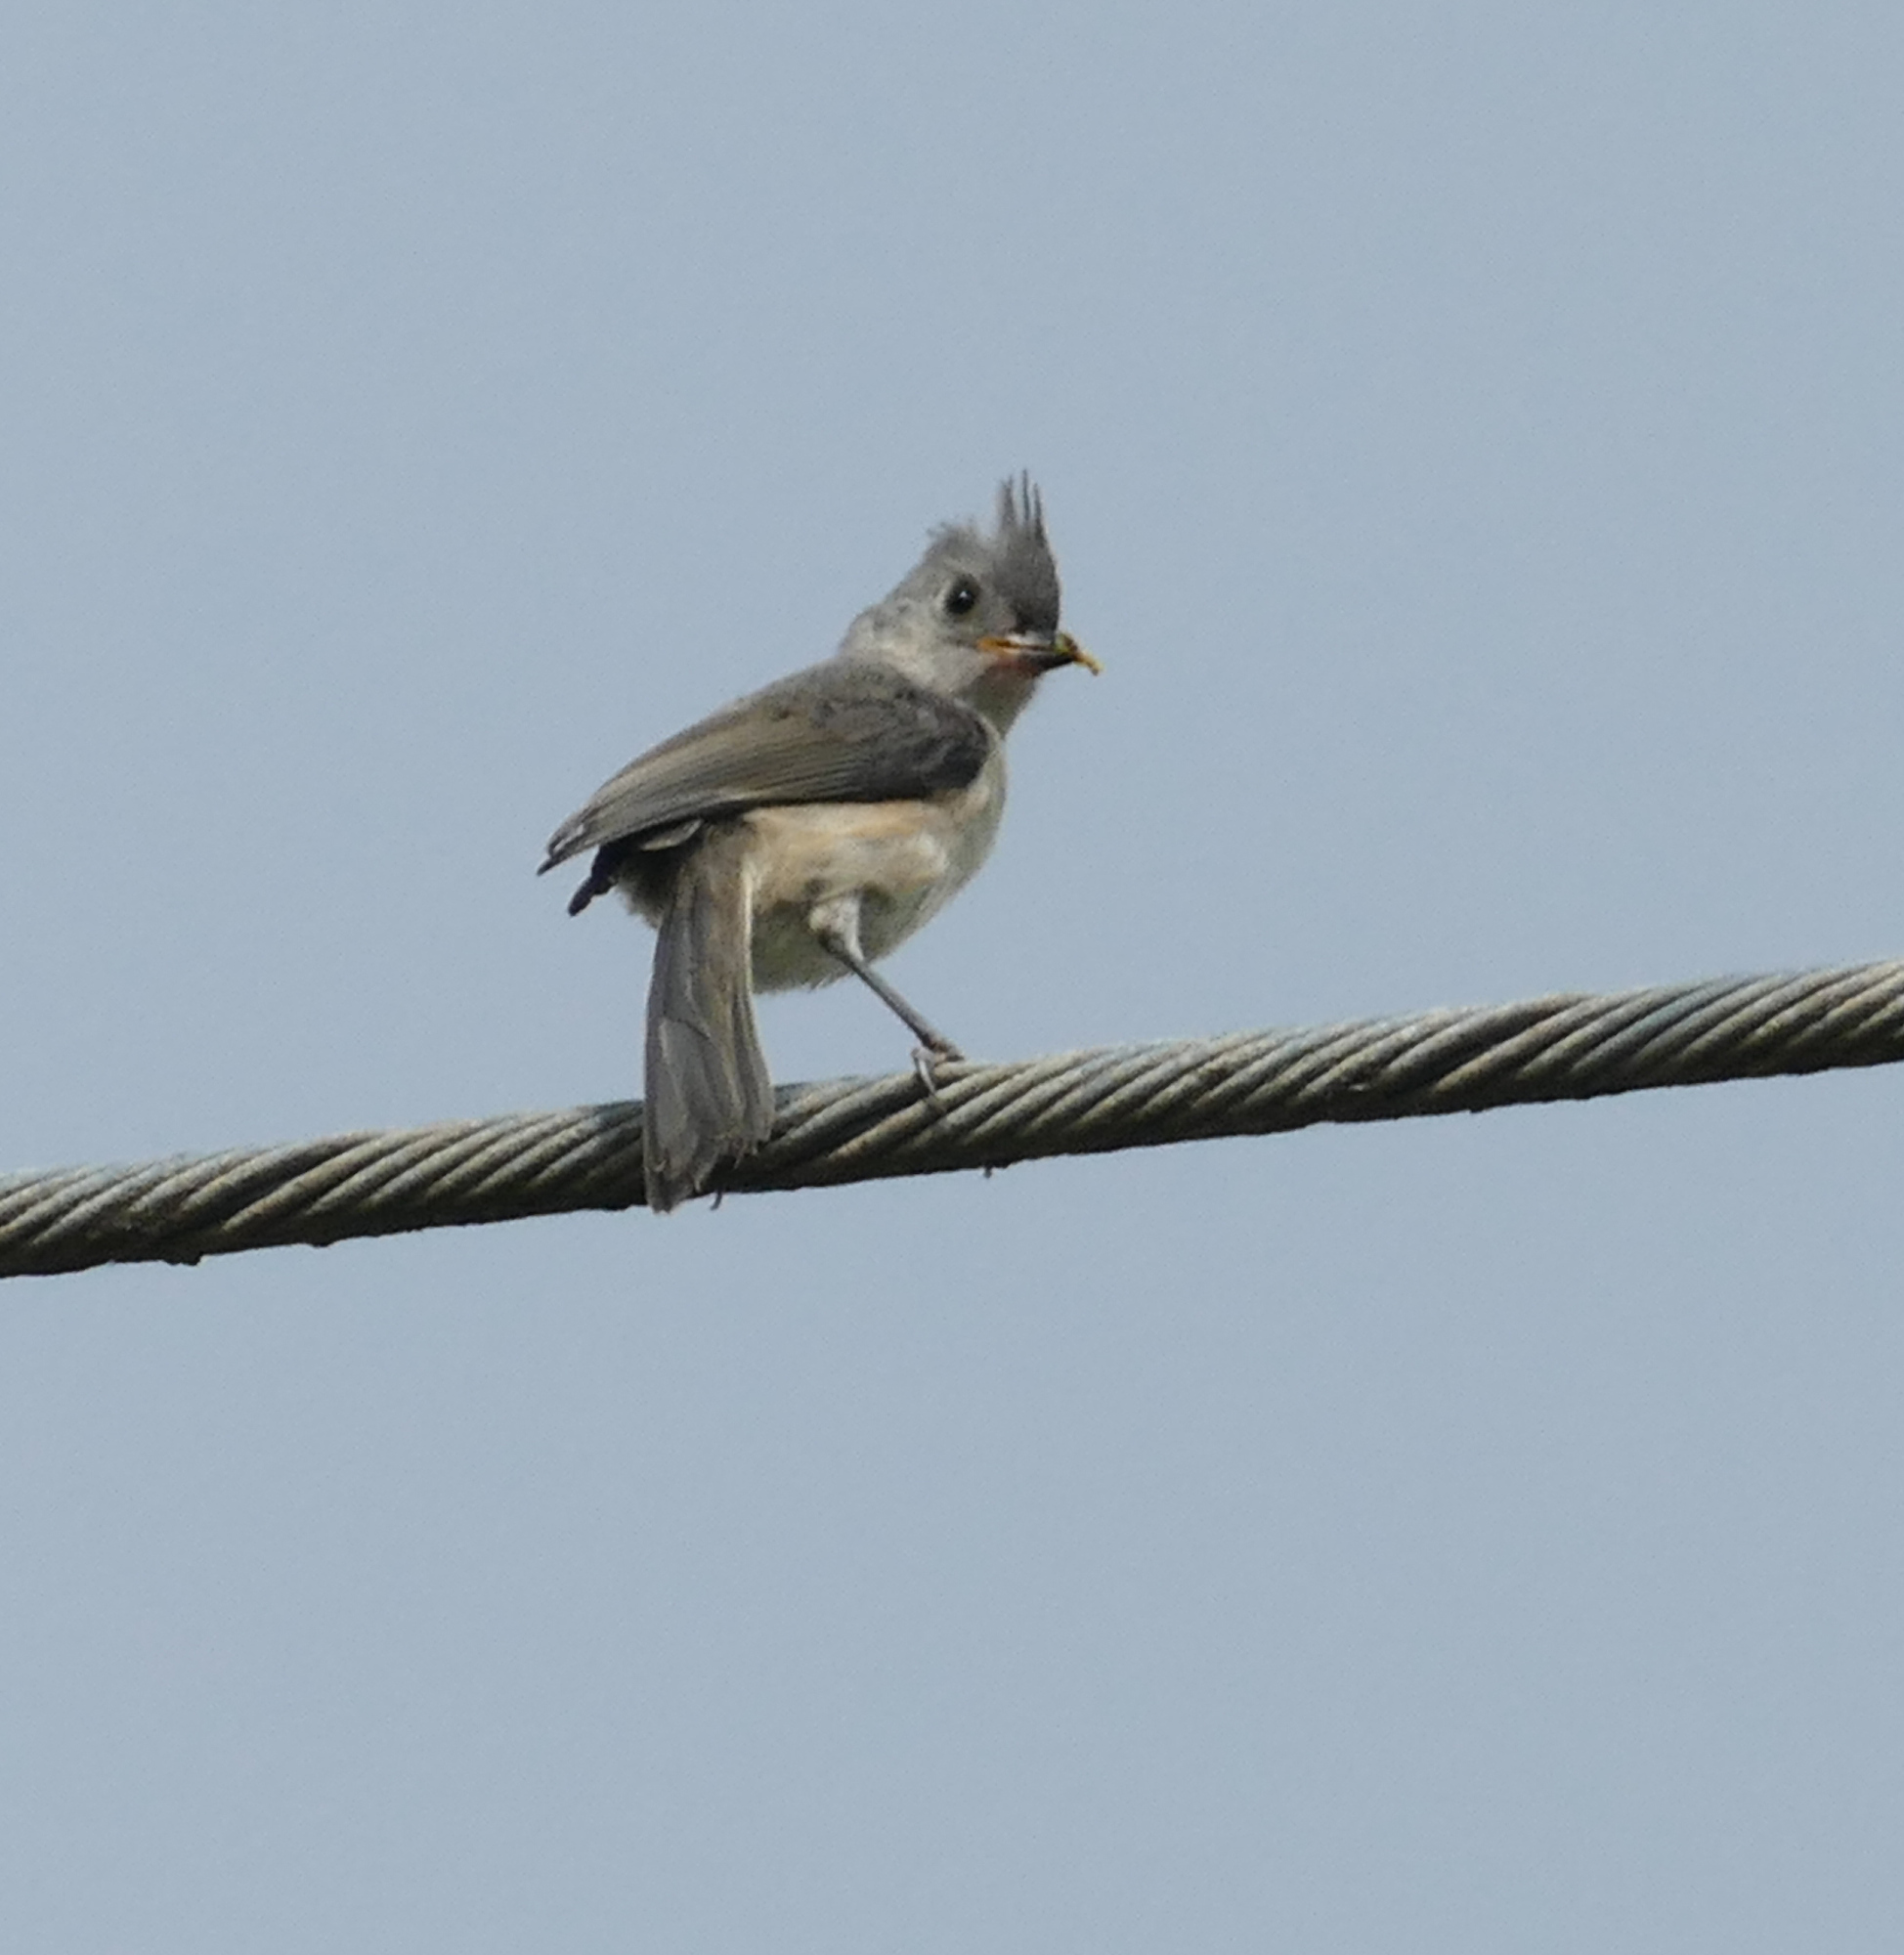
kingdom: Animalia
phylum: Chordata
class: Aves
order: Passeriformes
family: Paridae
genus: Baeolophus
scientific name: Baeolophus bicolor
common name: Tufted titmouse
